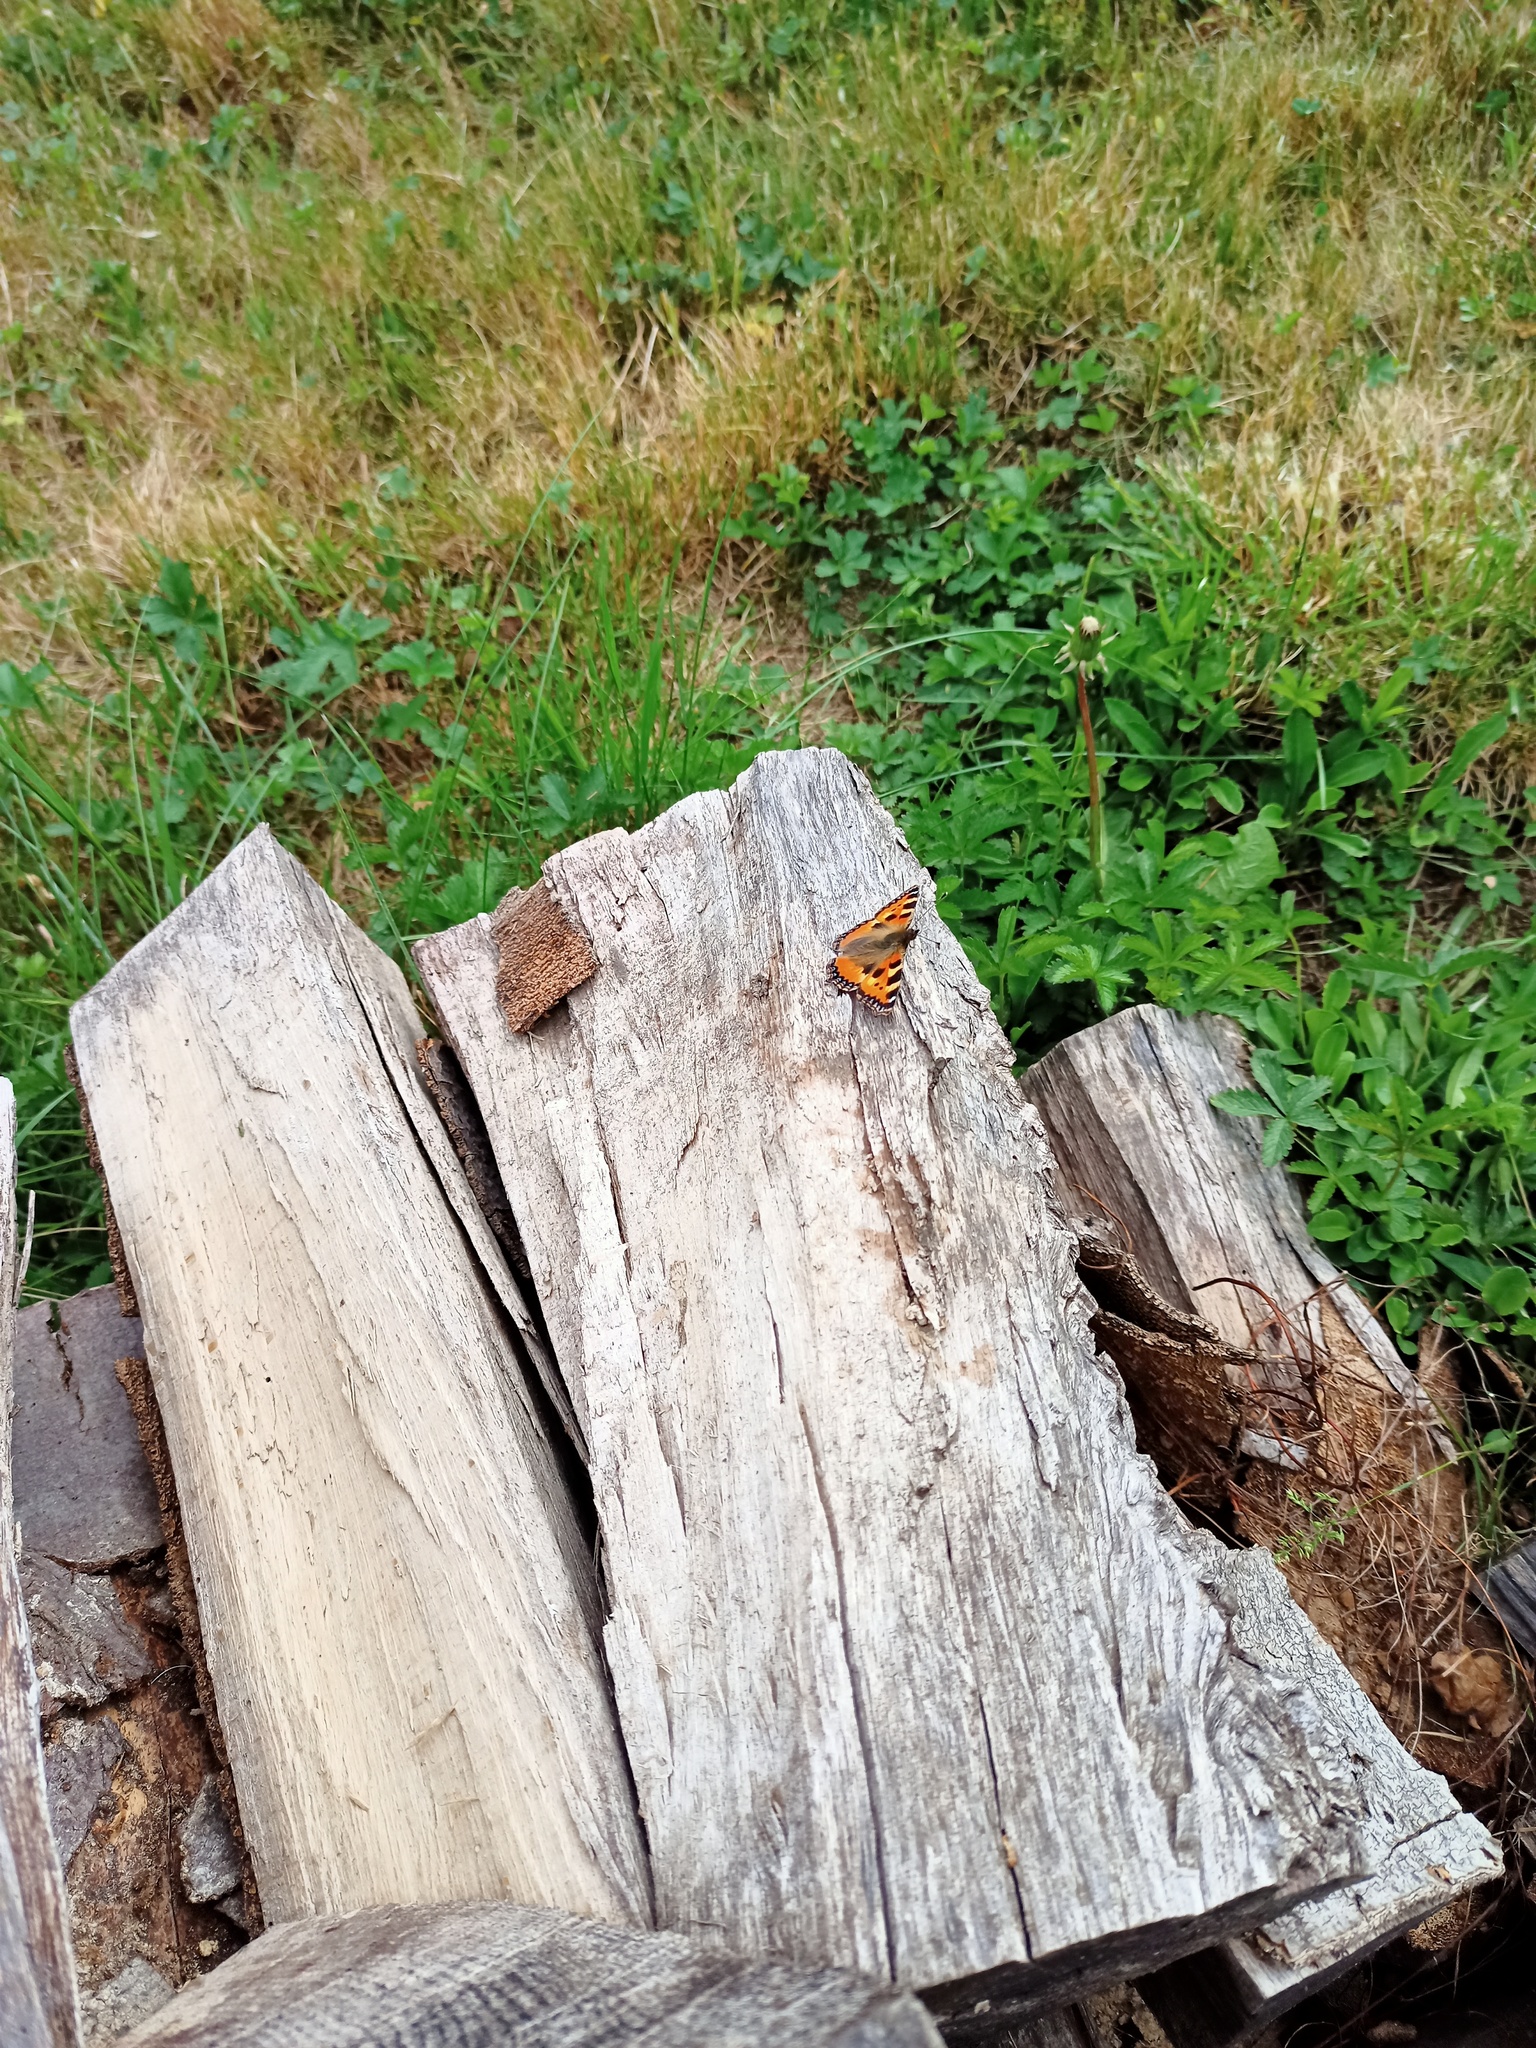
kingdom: Animalia
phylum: Arthropoda
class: Insecta
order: Lepidoptera
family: Nymphalidae
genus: Aglais
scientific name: Aglais urticae
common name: Small tortoiseshell
